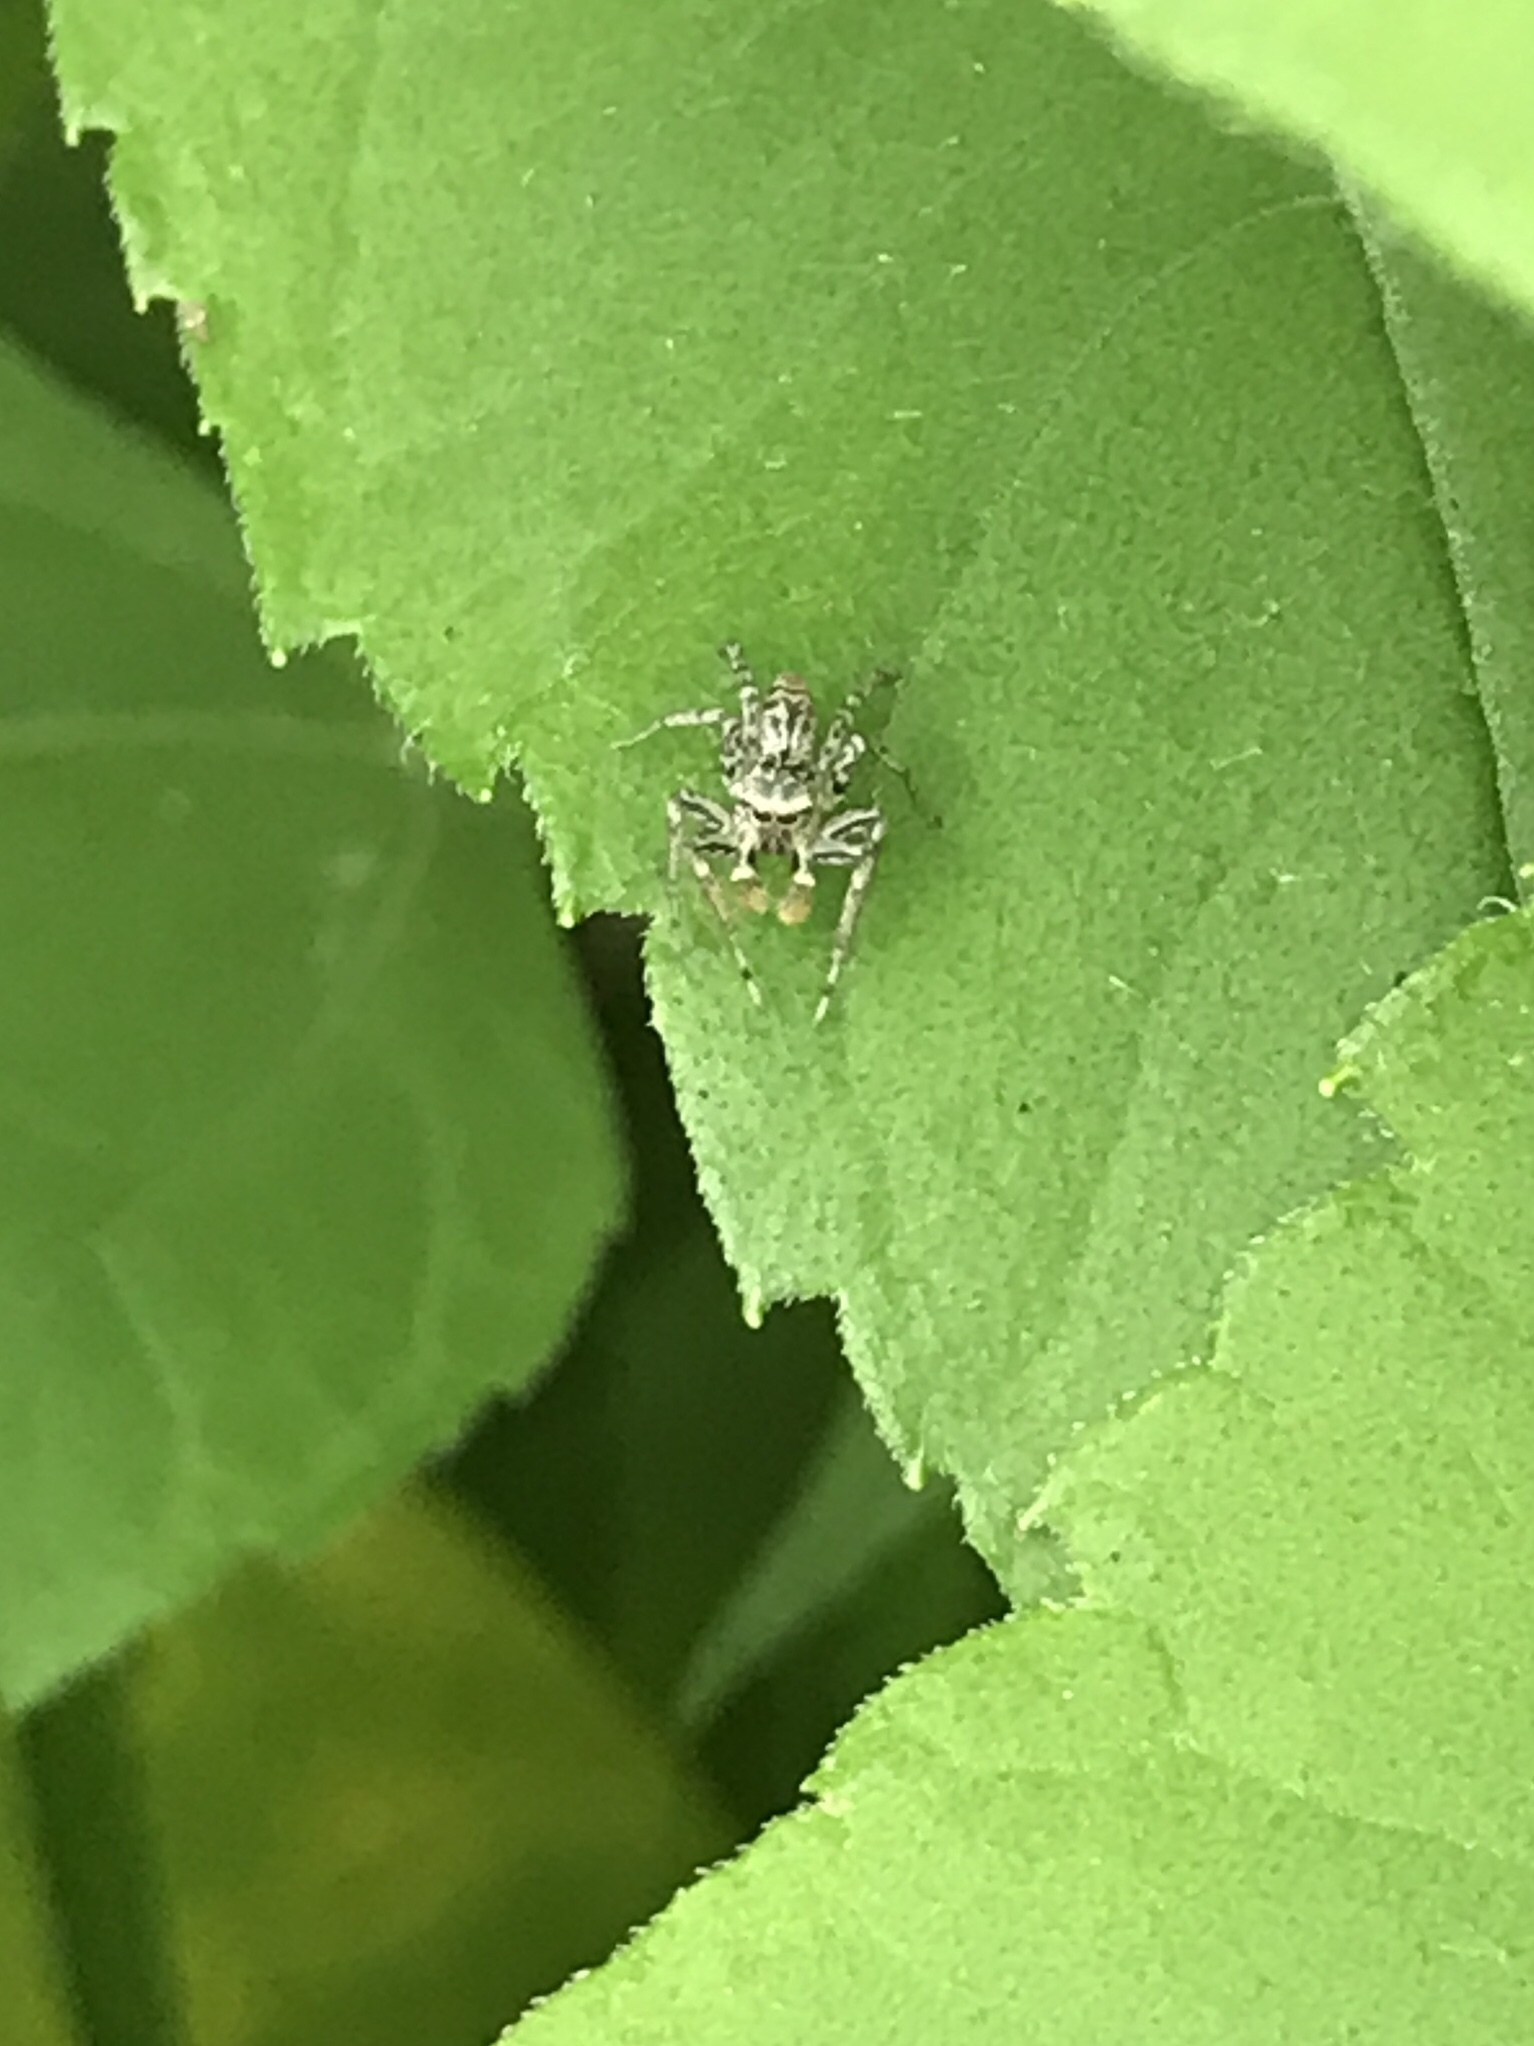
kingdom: Animalia
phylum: Arthropoda
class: Arachnida
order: Araneae
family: Salticidae
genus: Maevia
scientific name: Maevia inclemens
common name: Dimorphic jumper
